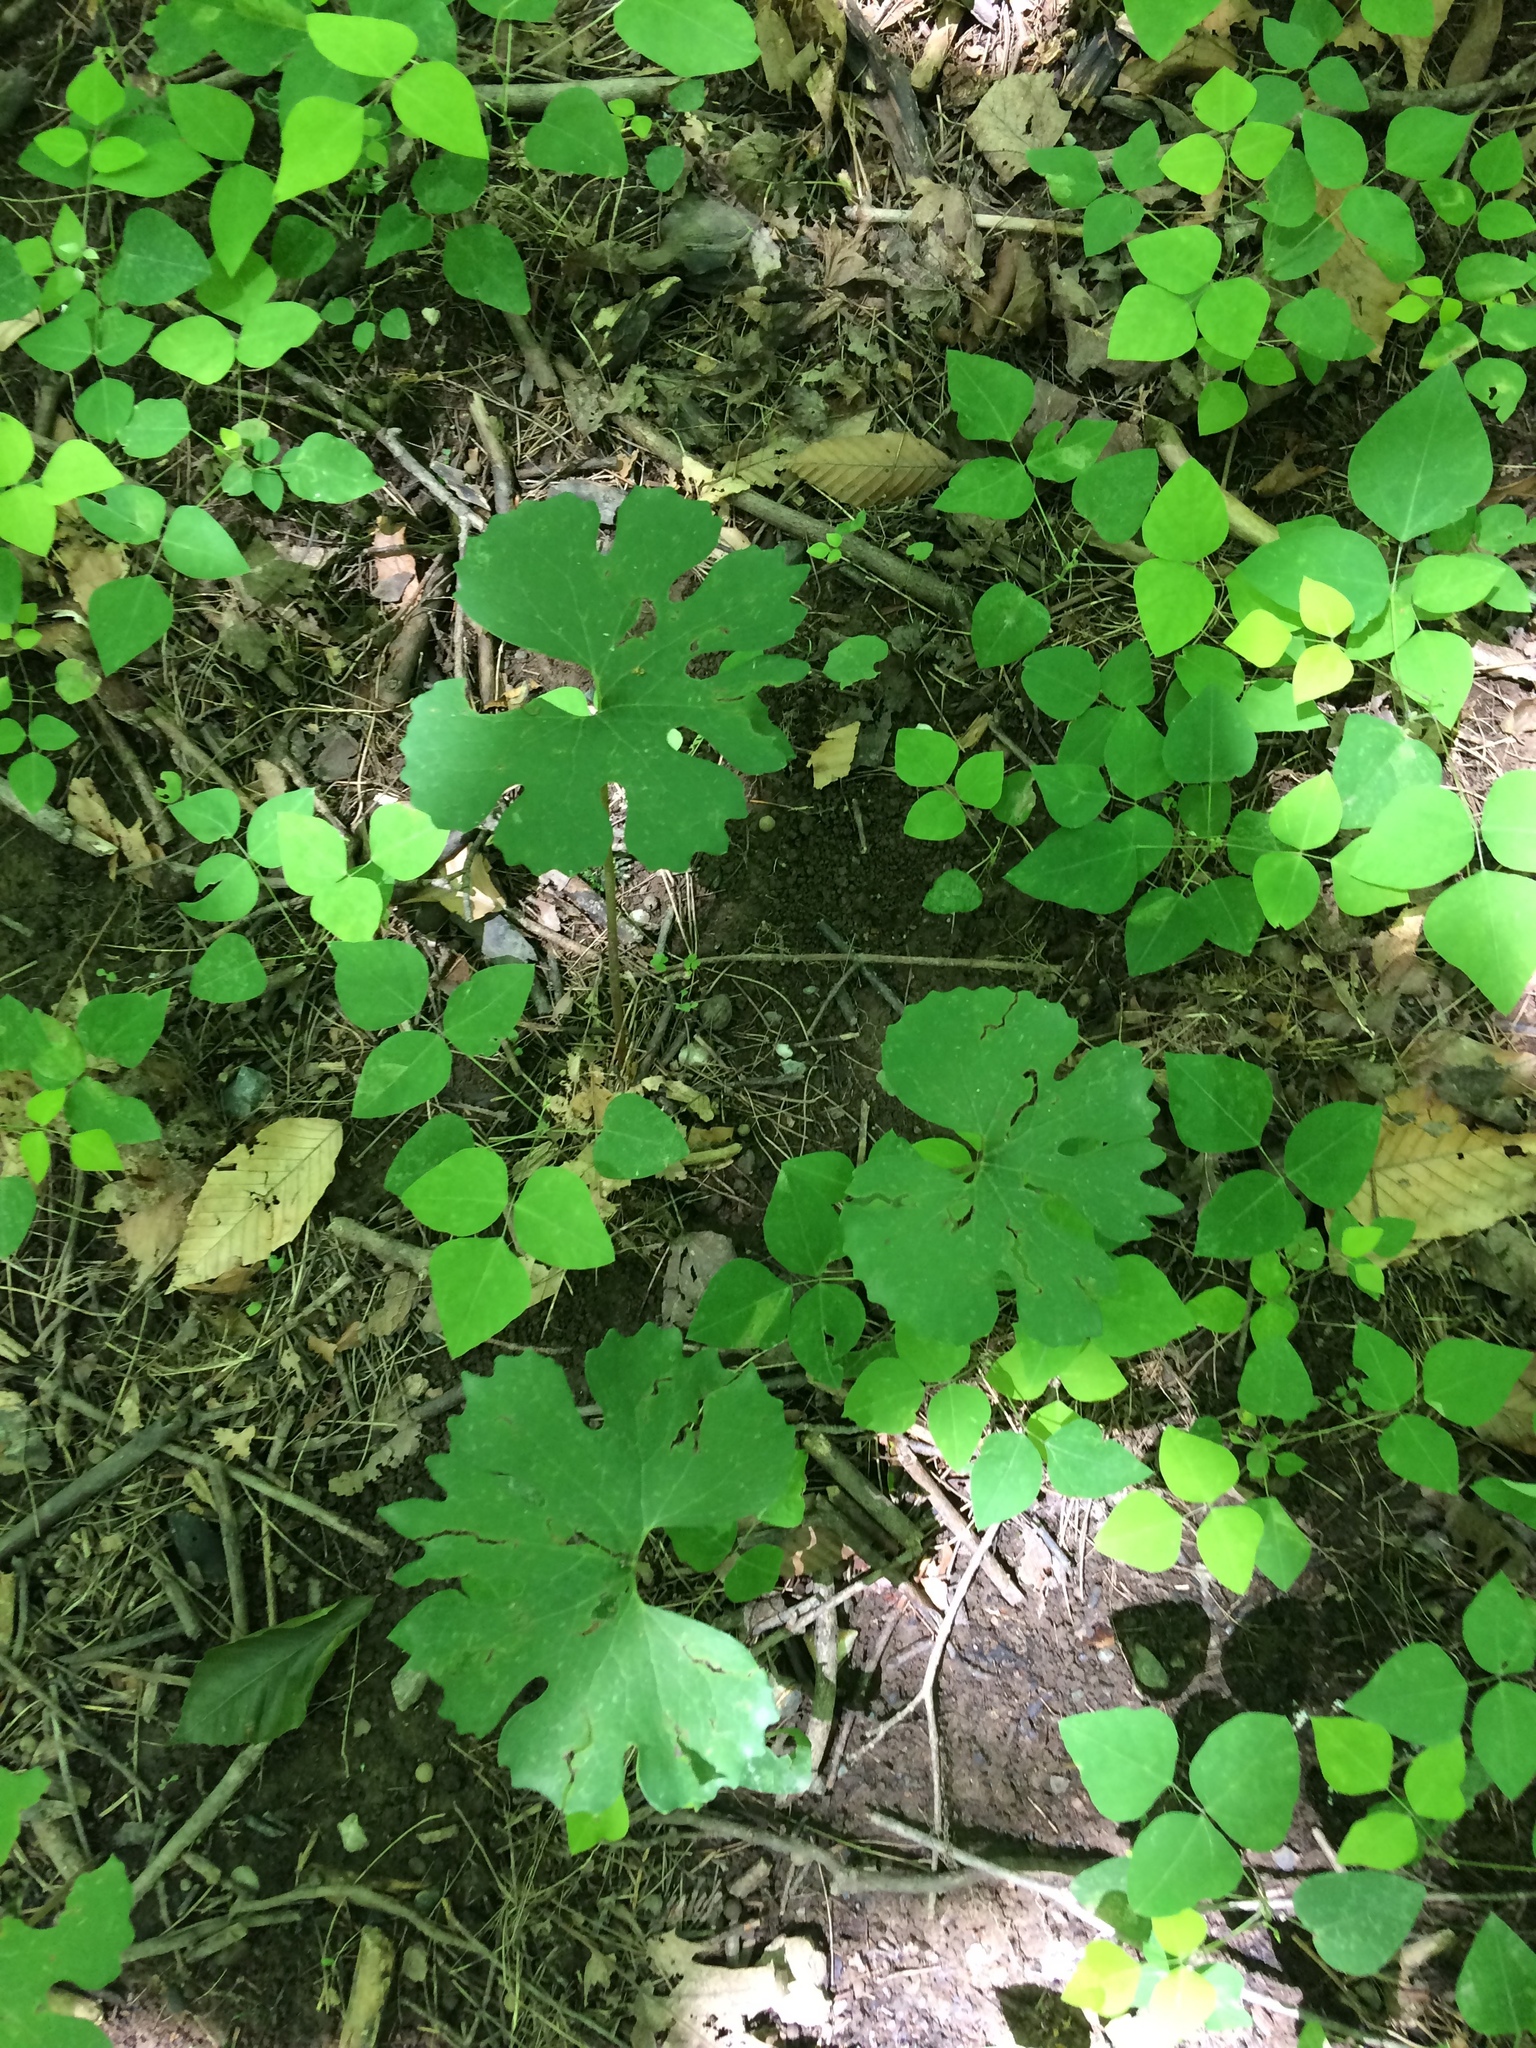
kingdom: Plantae
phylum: Tracheophyta
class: Magnoliopsida
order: Ranunculales
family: Papaveraceae
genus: Sanguinaria
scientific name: Sanguinaria canadensis
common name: Bloodroot
